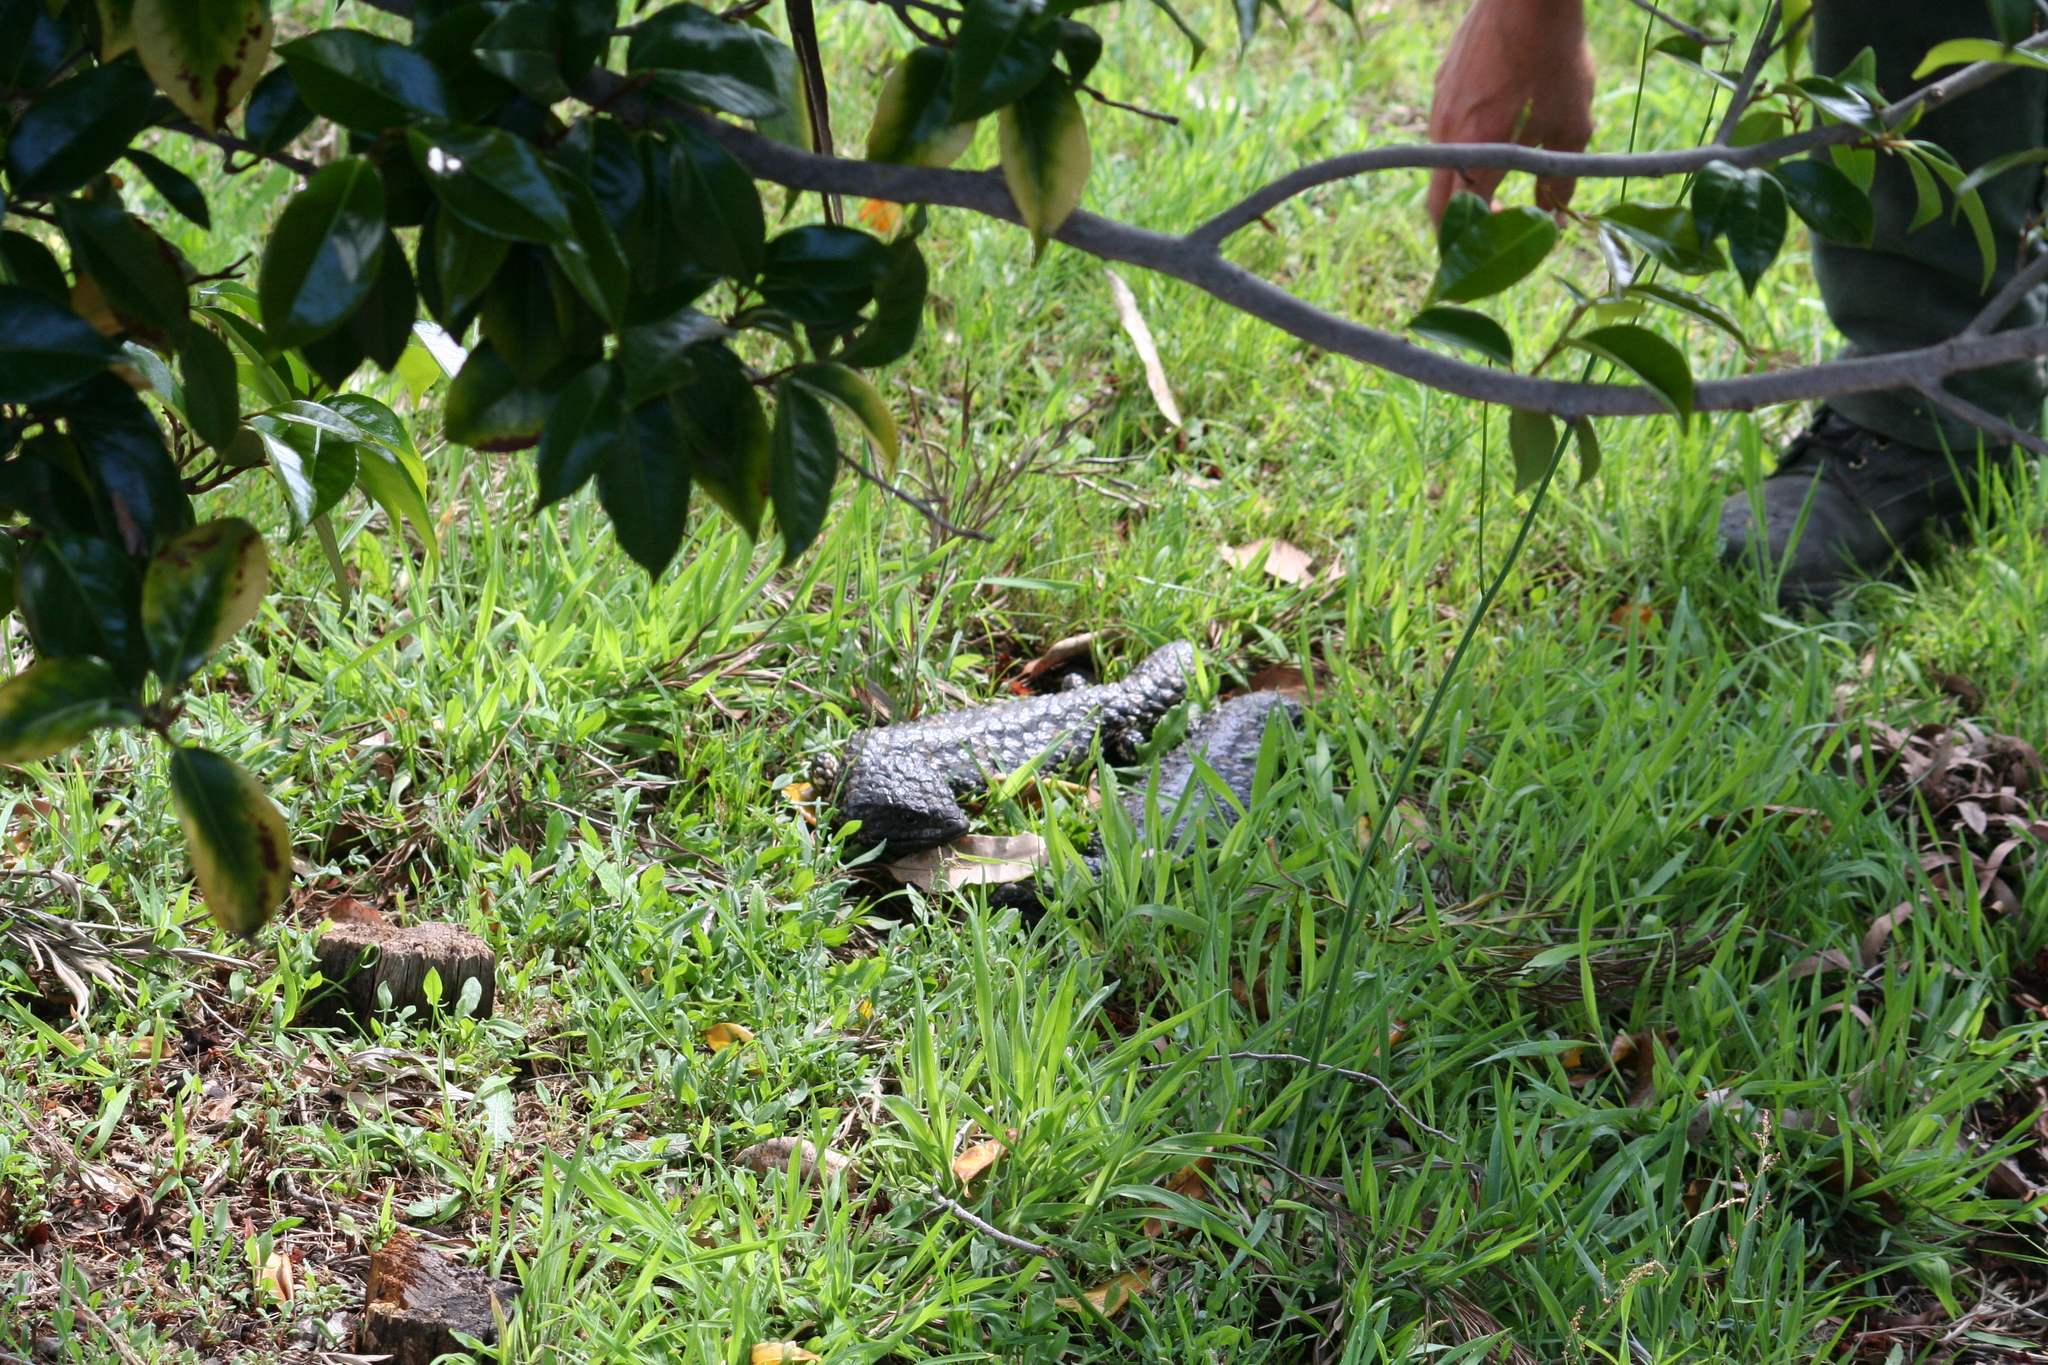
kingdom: Animalia
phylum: Chordata
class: Squamata
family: Scincidae
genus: Tiliqua
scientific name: Tiliqua rugosa
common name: Pinecone lizard
